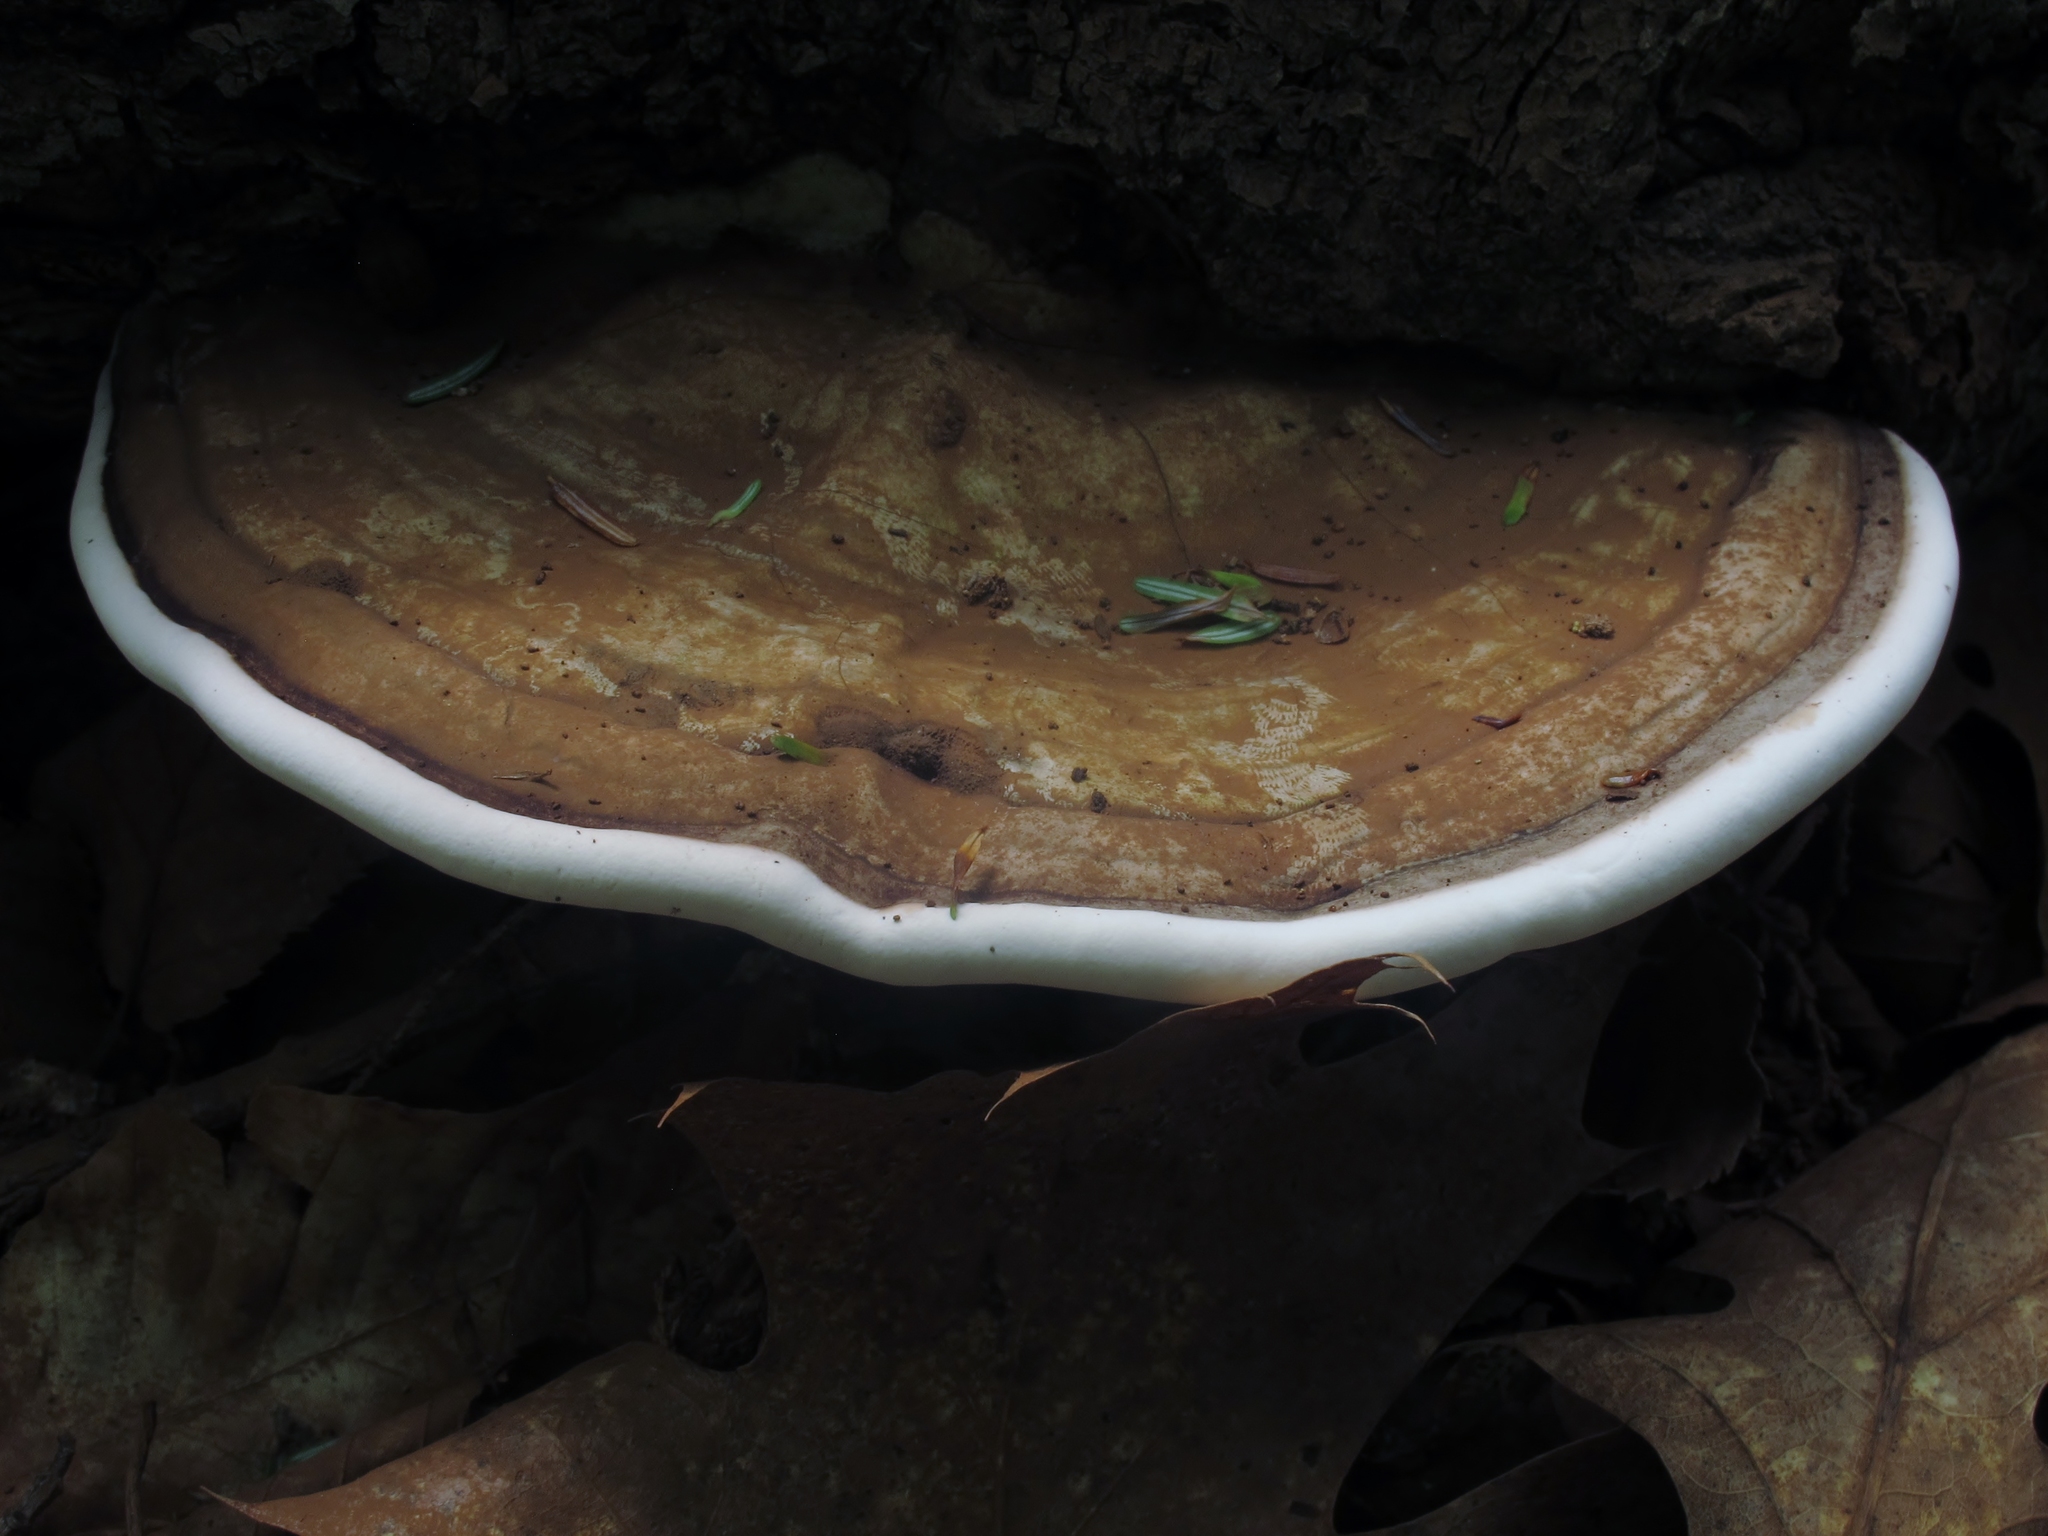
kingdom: Fungi
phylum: Basidiomycota
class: Agaricomycetes
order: Polyporales
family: Polyporaceae
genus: Ganoderma
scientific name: Ganoderma applanatum
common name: Artist's bracket
